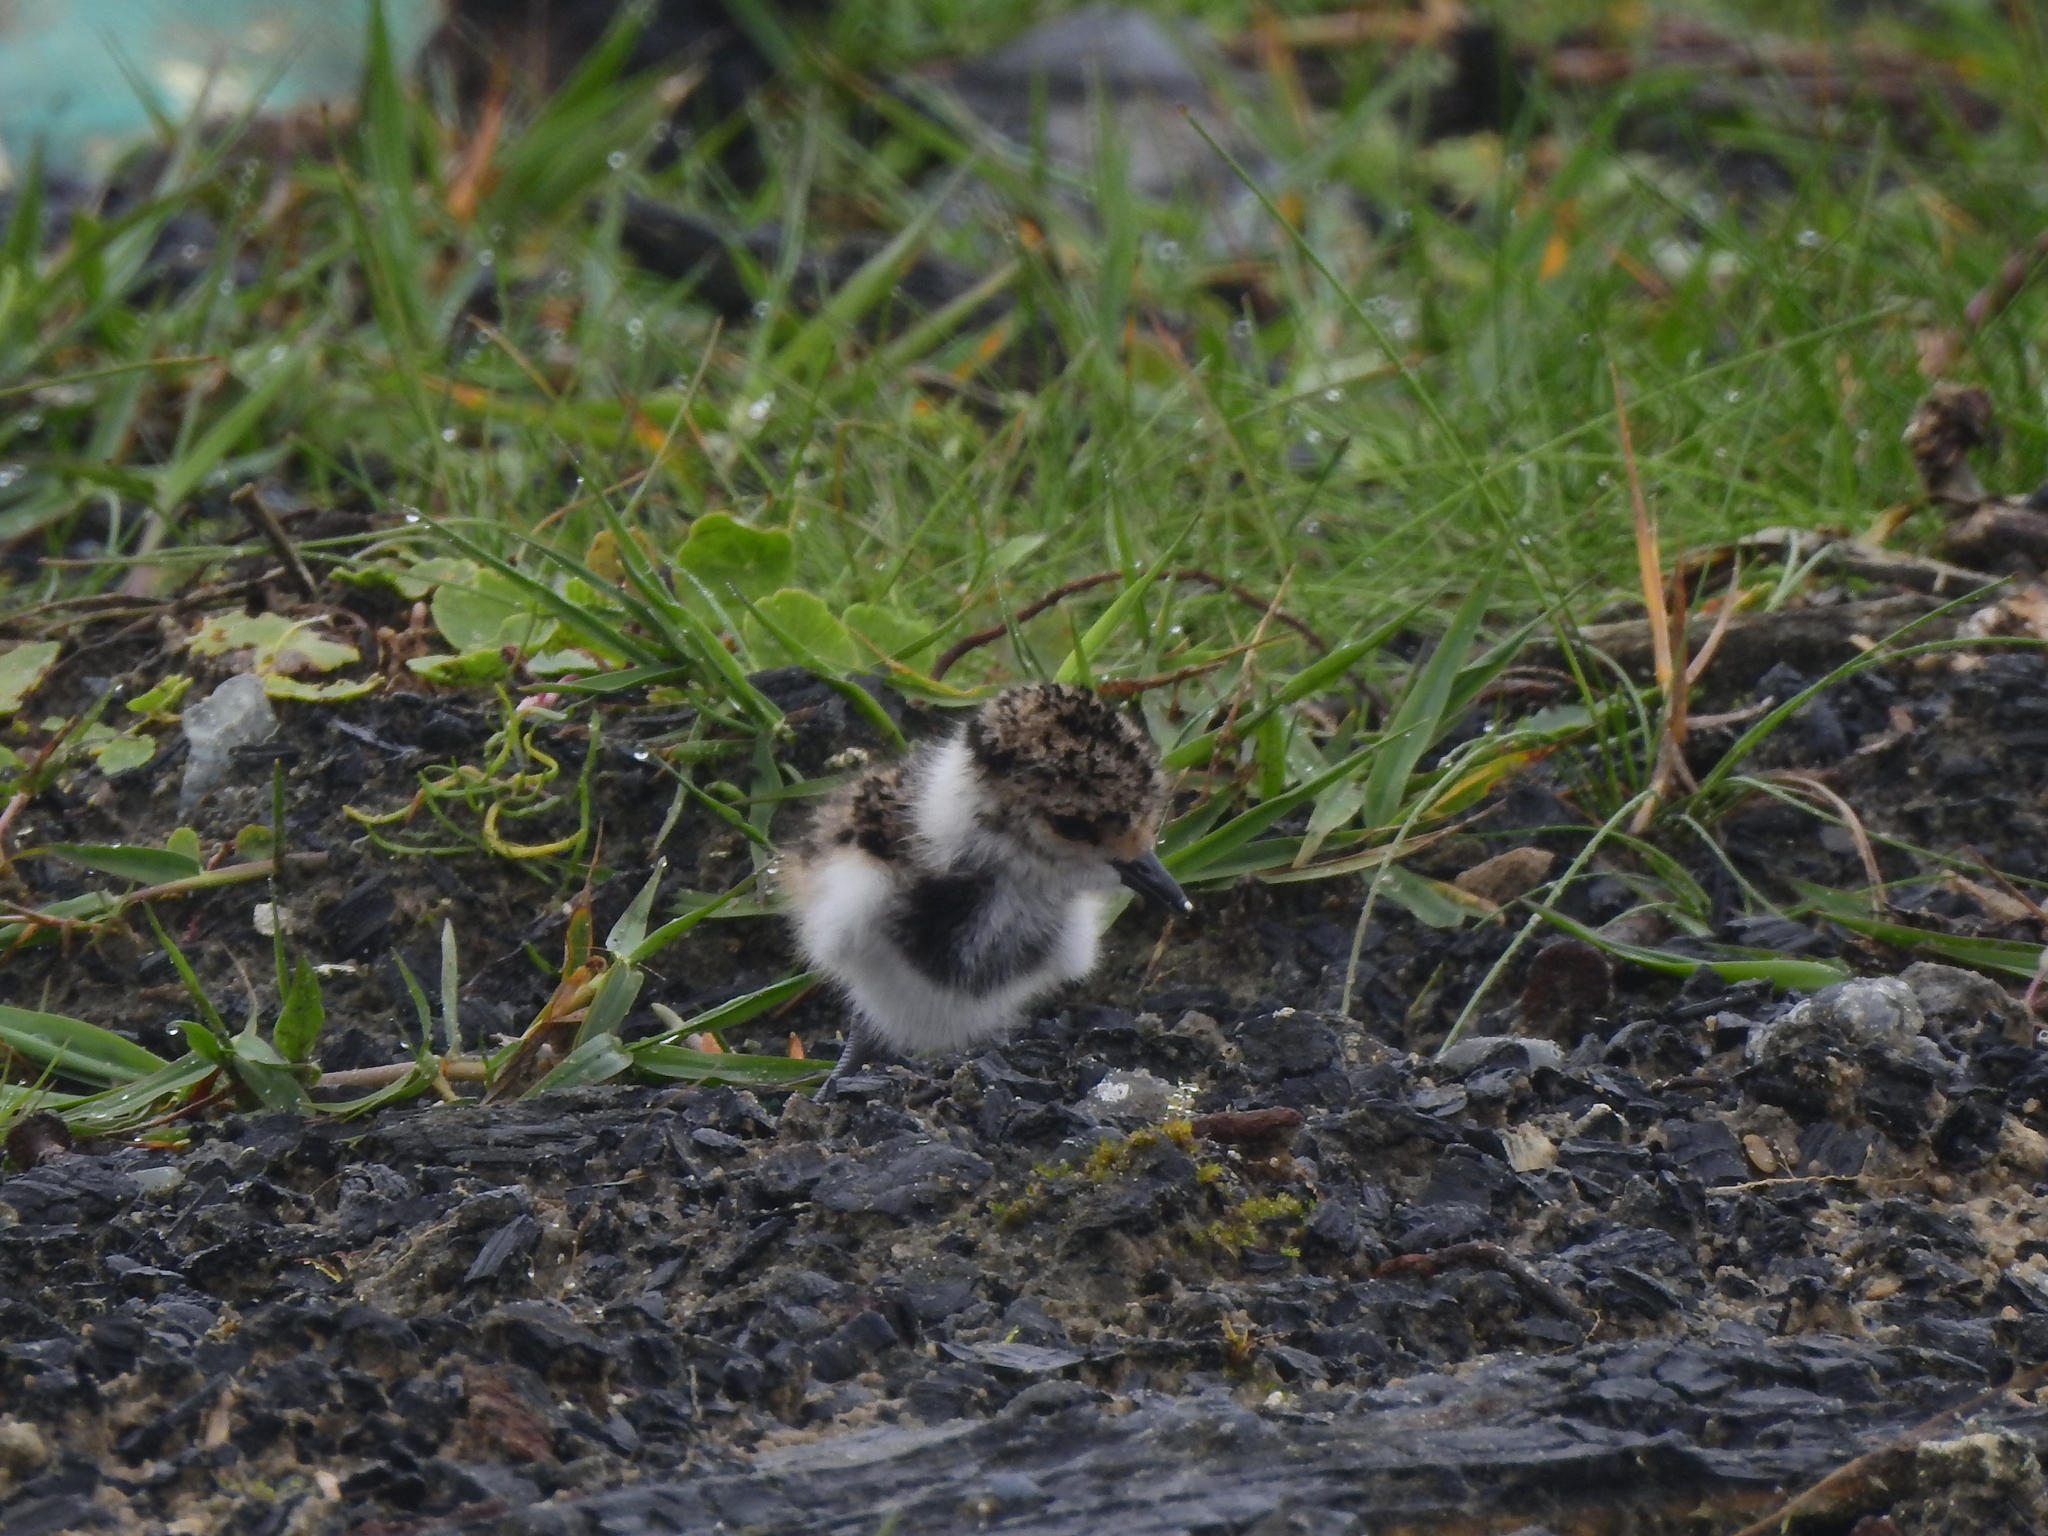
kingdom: Animalia
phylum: Chordata
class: Aves
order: Charadriiformes
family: Charadriidae
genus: Vanellus
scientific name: Vanellus chilensis
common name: Southern lapwing
